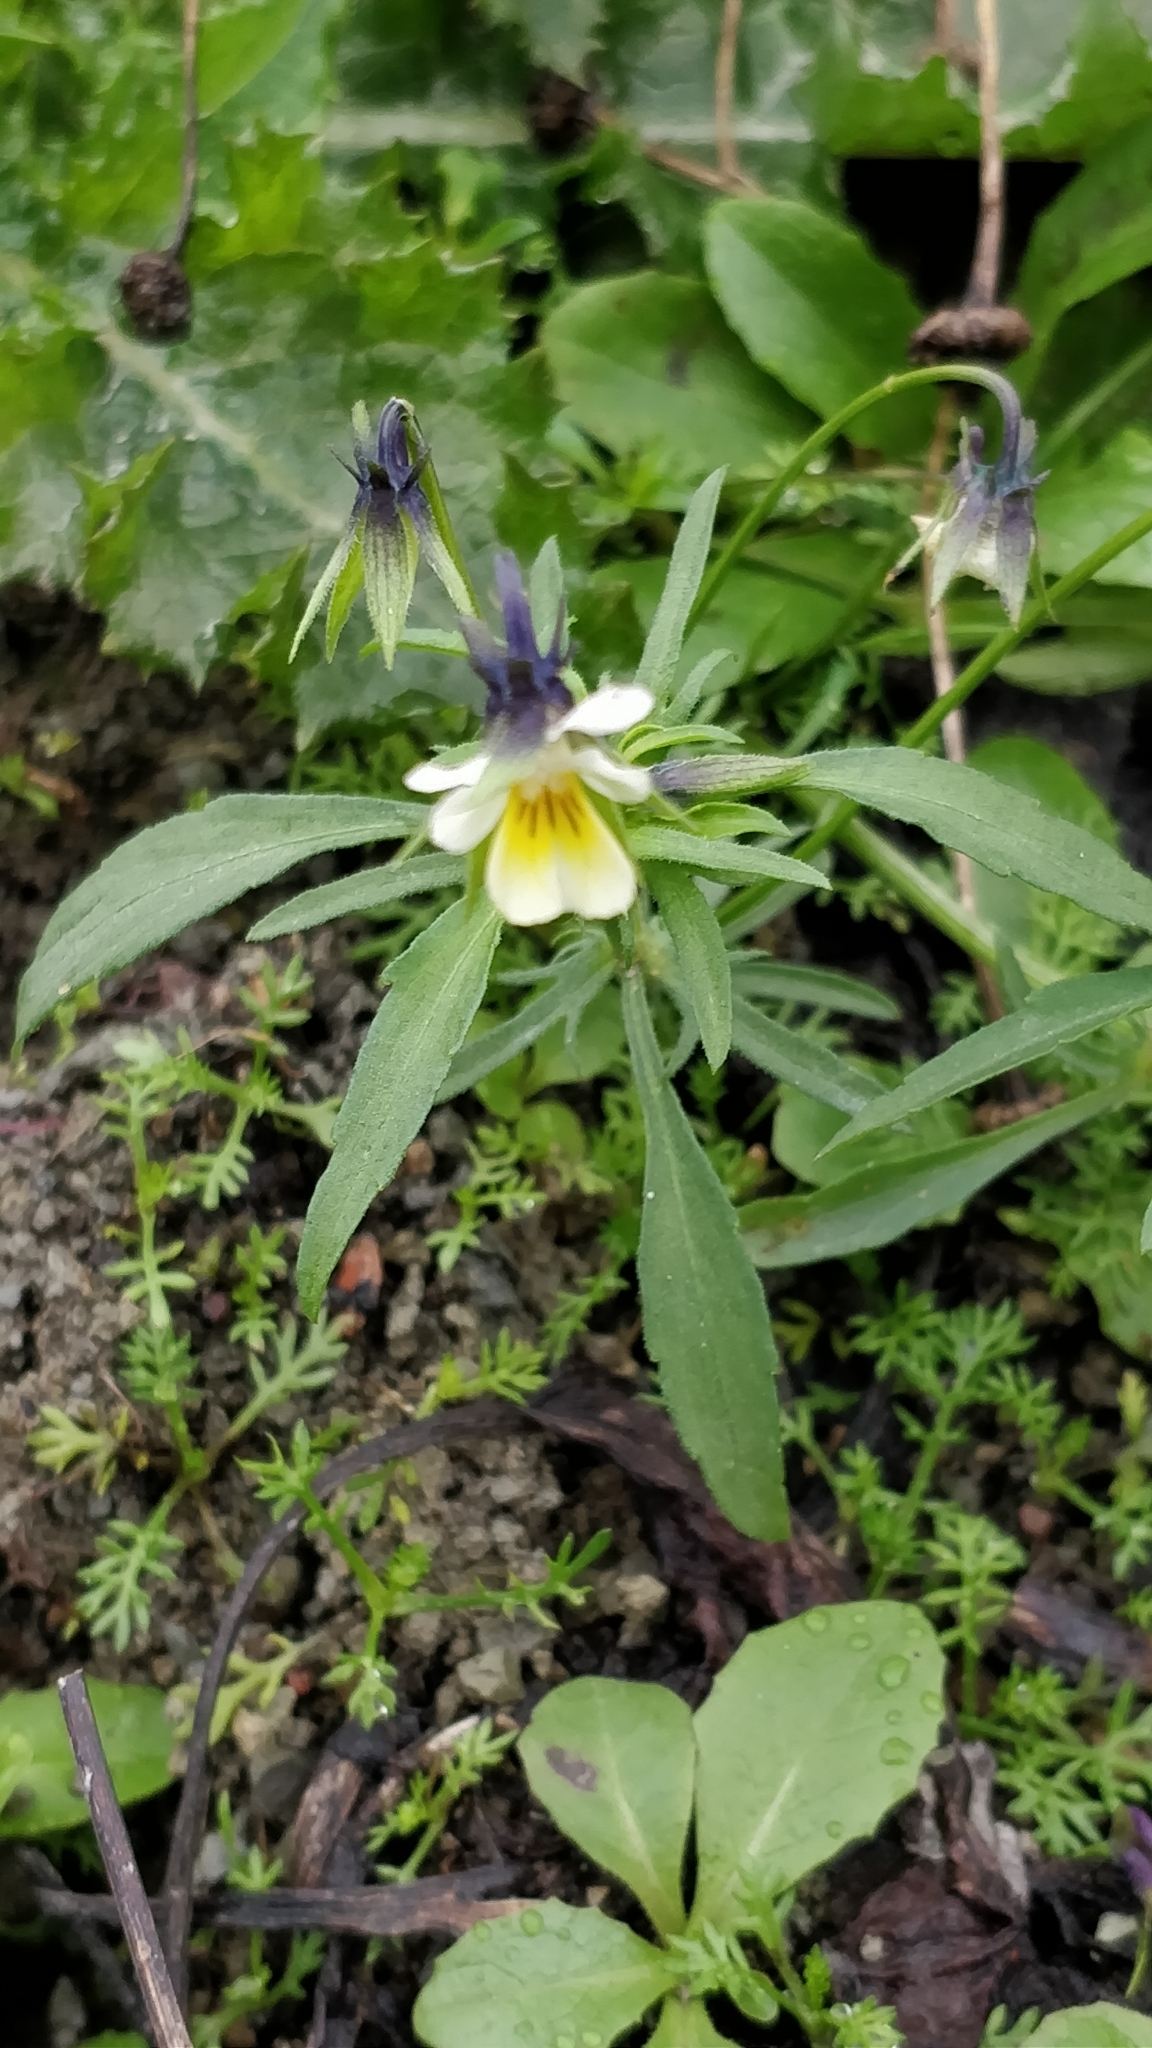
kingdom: Plantae
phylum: Tracheophyta
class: Magnoliopsida
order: Malpighiales
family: Violaceae
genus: Viola
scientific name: Viola arvensis
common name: Field pansy
